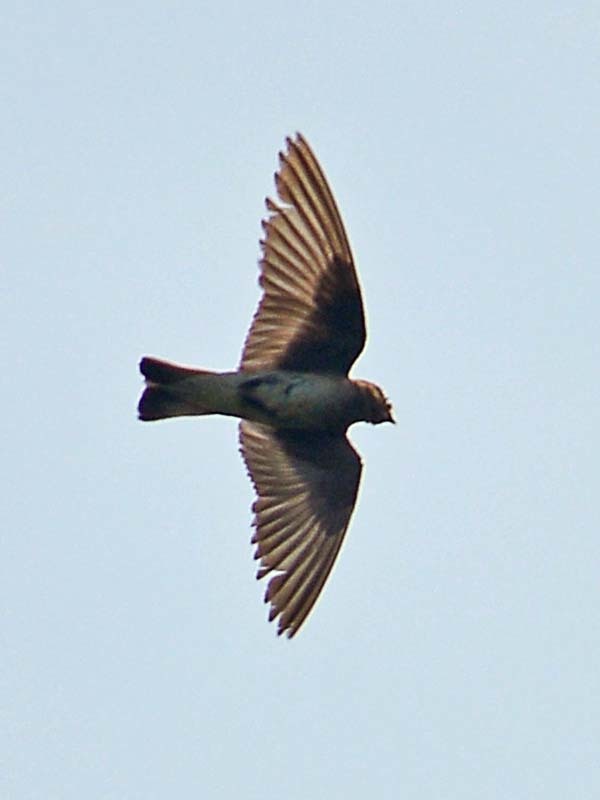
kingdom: Animalia
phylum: Chordata
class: Aves
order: Passeriformes
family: Hirundinidae
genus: Progne
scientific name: Progne chalybea
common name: Grey-breasted martin
